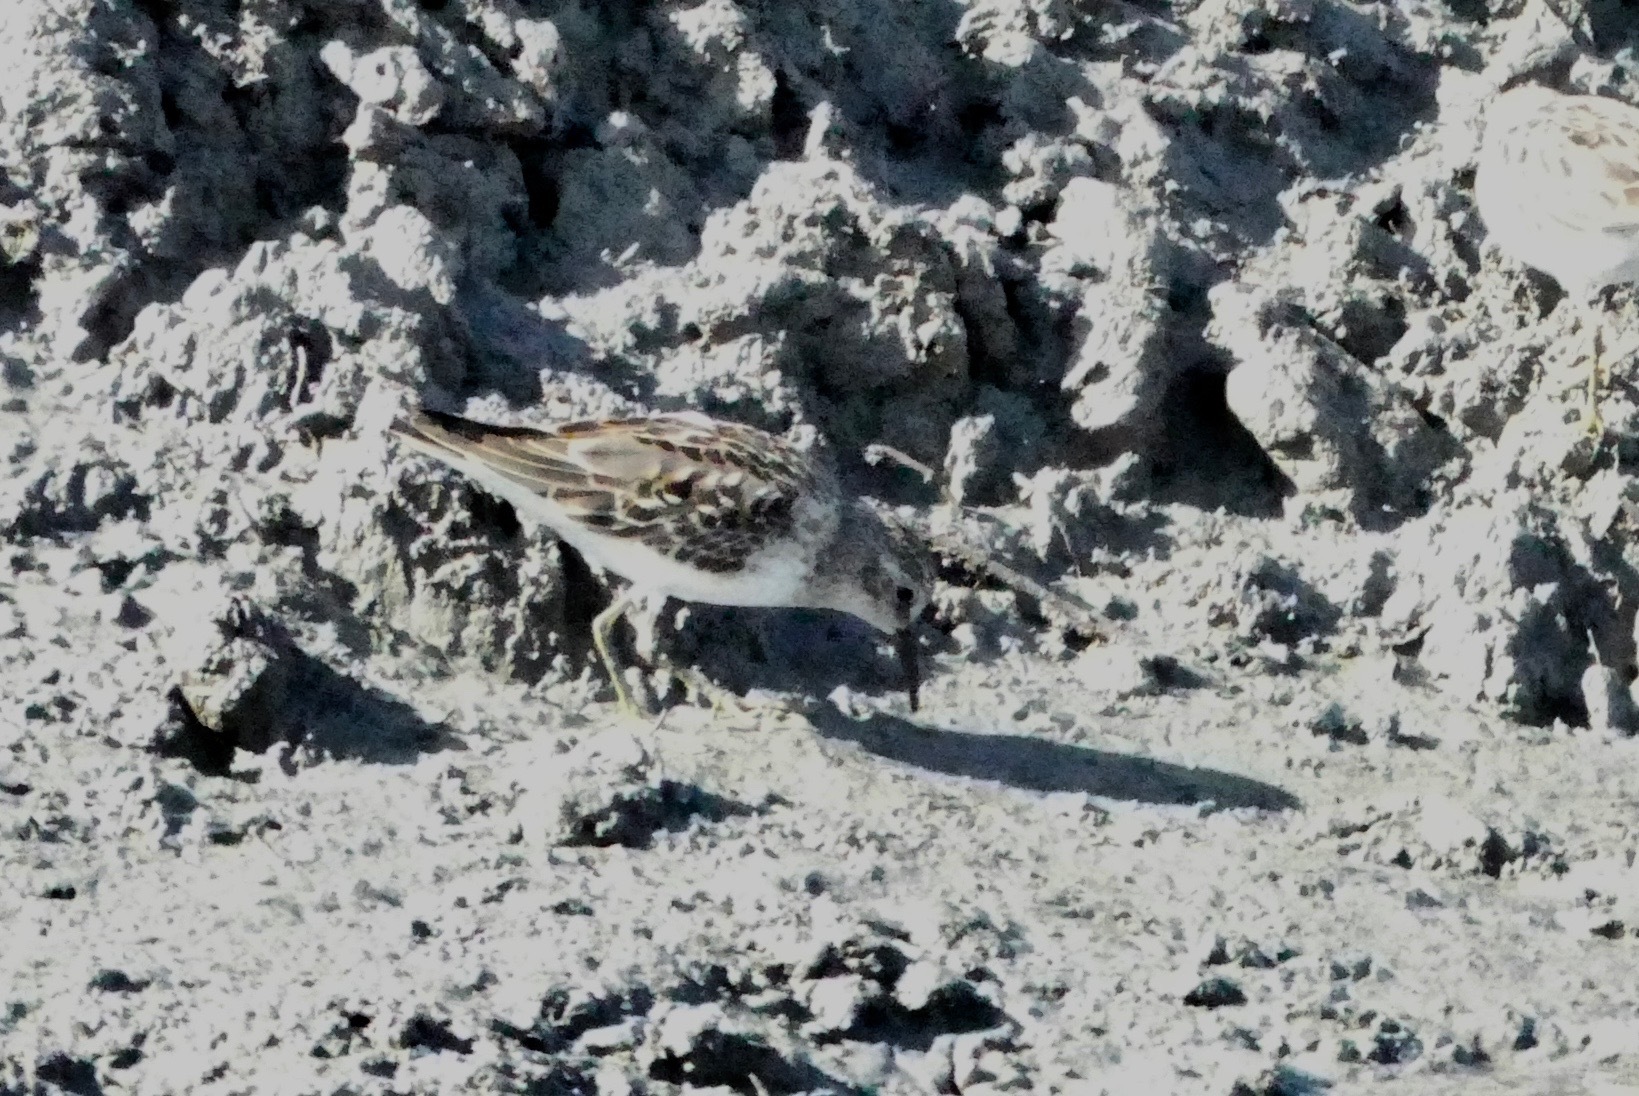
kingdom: Animalia
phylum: Chordata
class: Aves
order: Charadriiformes
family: Scolopacidae
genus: Calidris
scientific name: Calidris minutilla
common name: Least sandpiper
